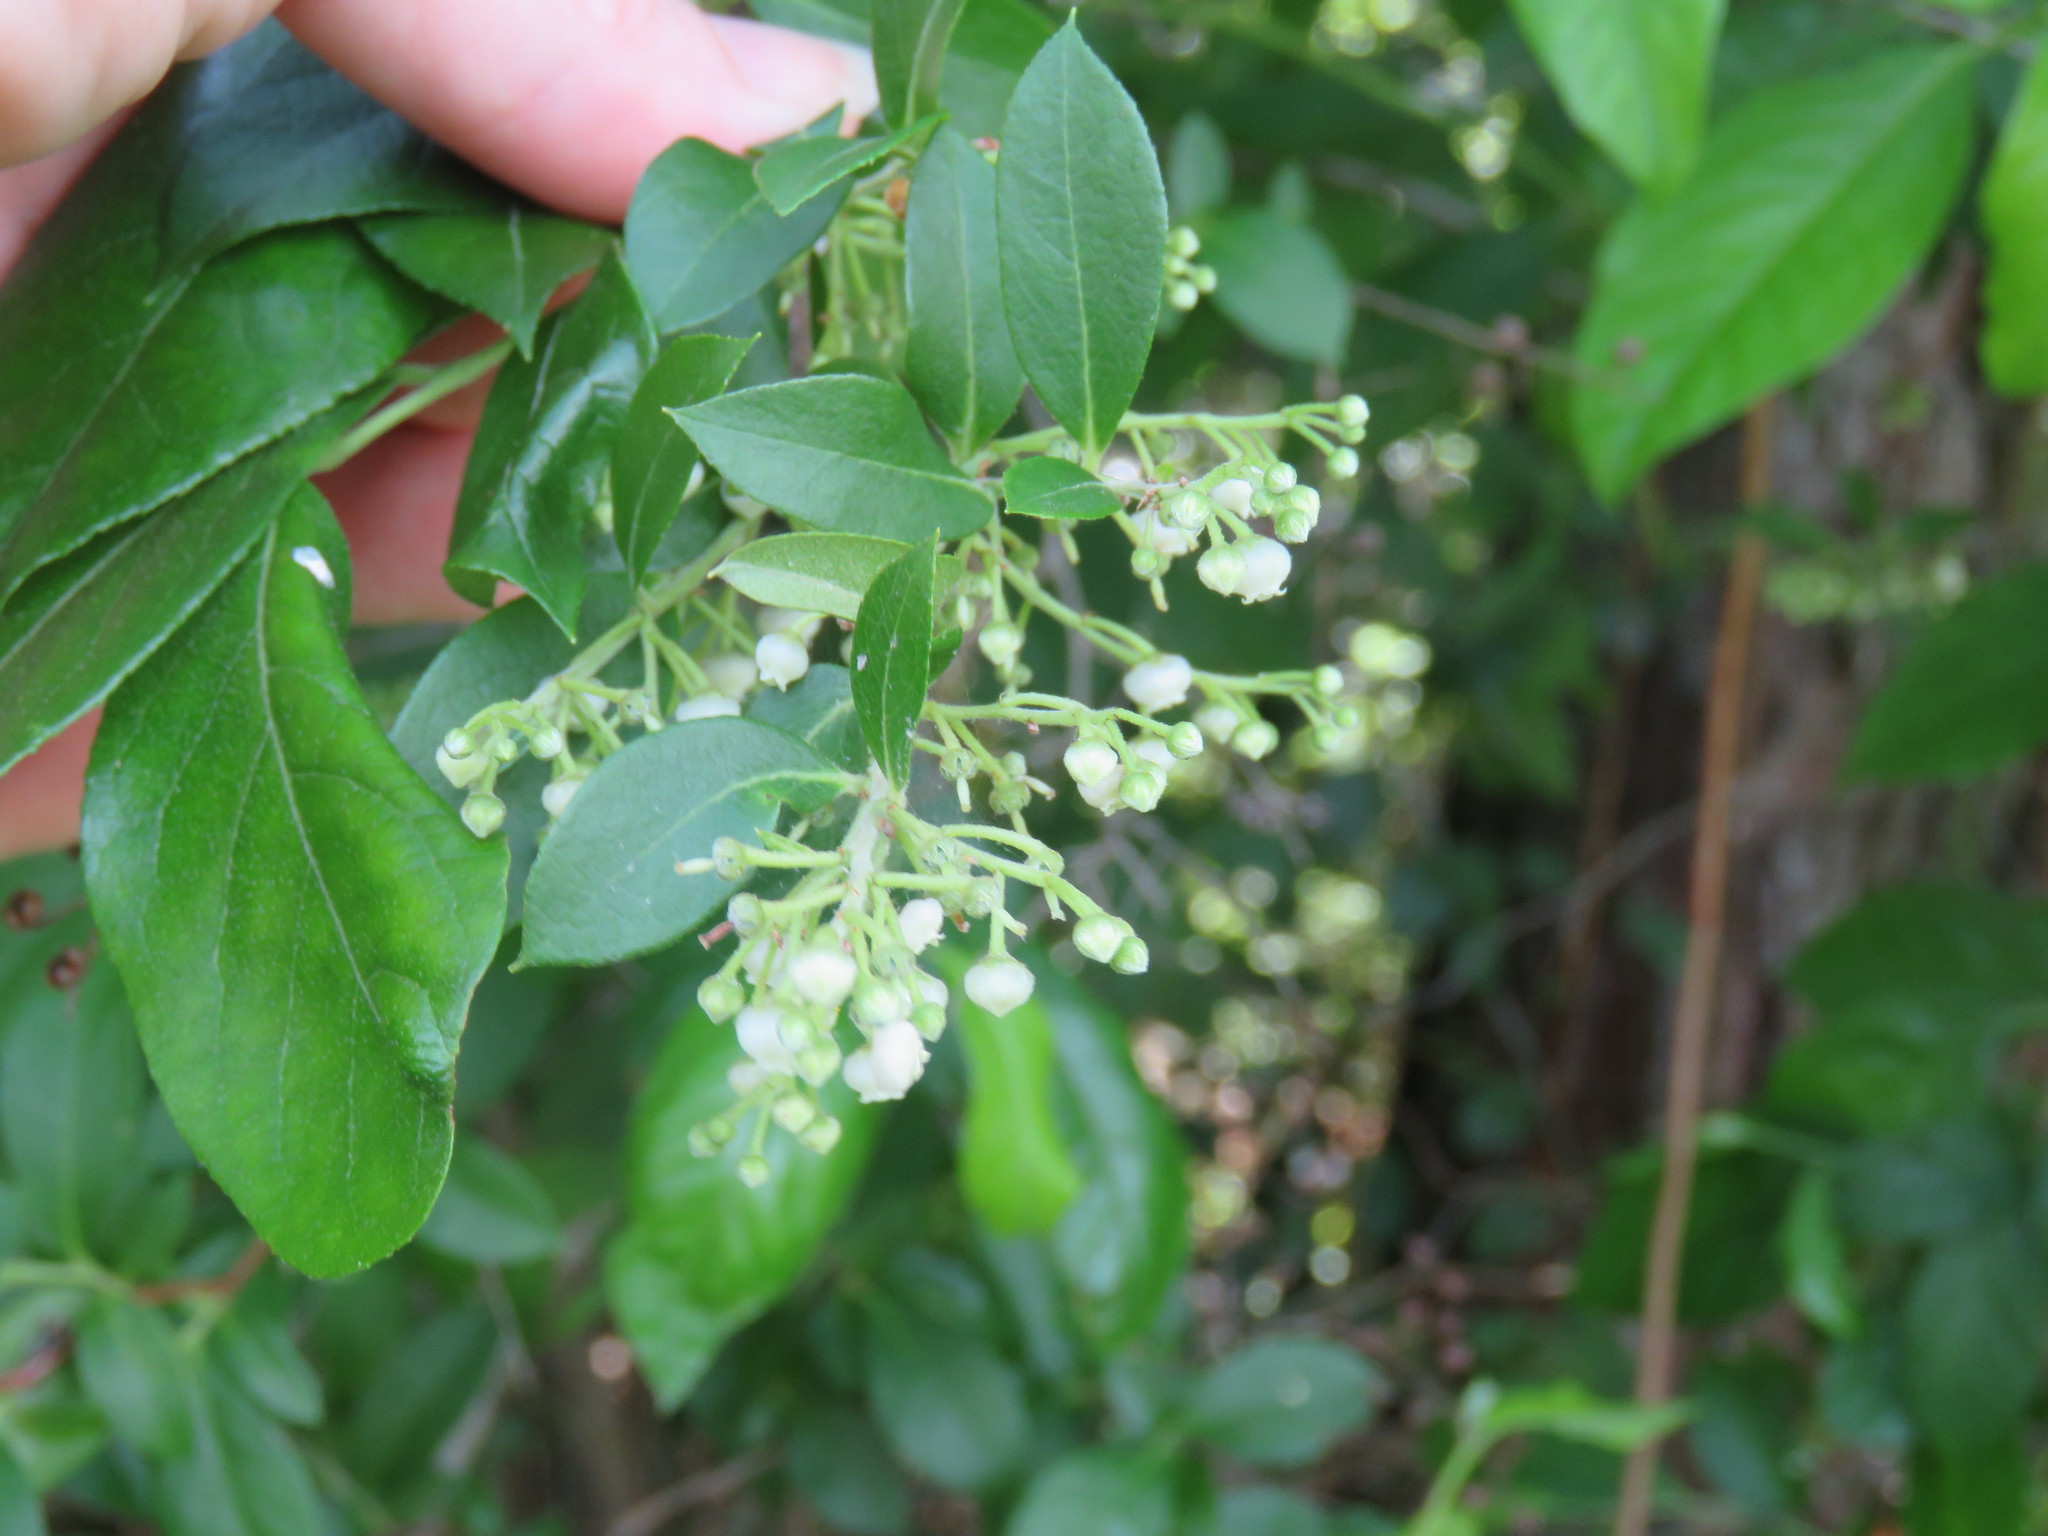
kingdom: Plantae
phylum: Tracheophyta
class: Magnoliopsida
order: Ericales
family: Ericaceae
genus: Lyonia
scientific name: Lyonia ligustrina
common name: Maleberry
